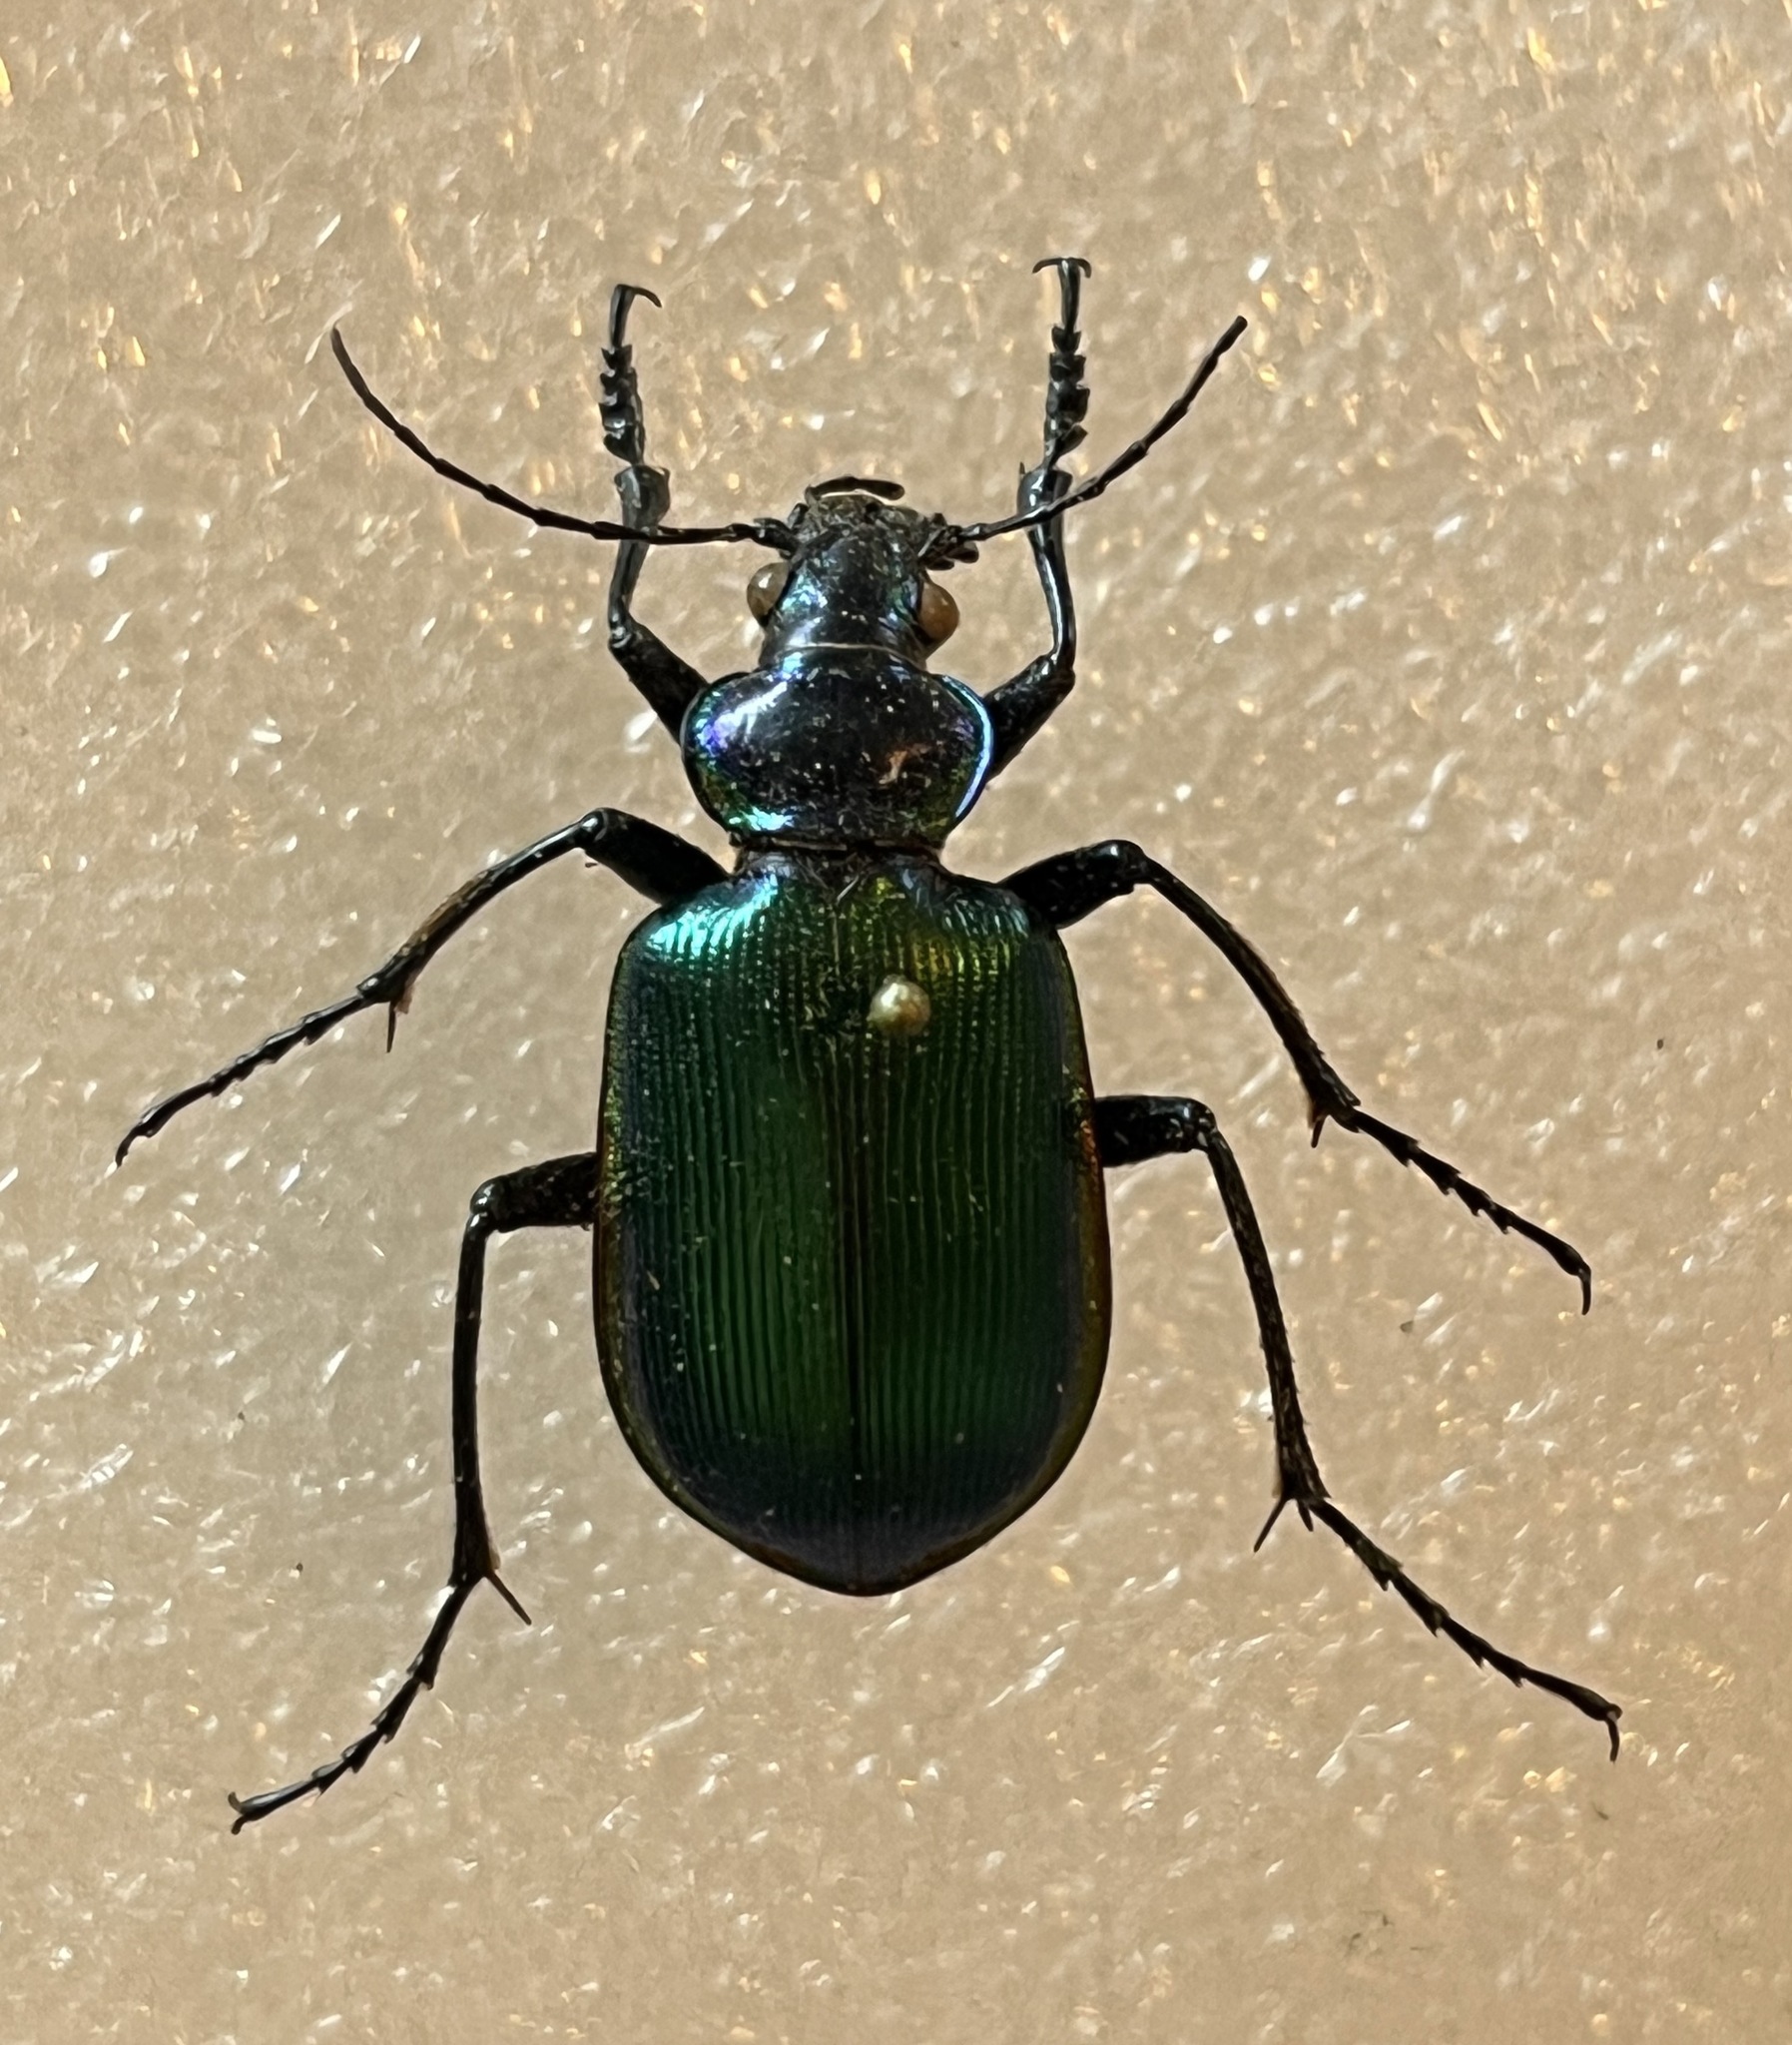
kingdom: Animalia
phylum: Arthropoda
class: Insecta
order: Coleoptera
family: Carabidae
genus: Calosoma
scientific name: Calosoma scrutator
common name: Fiery searcher beetle
